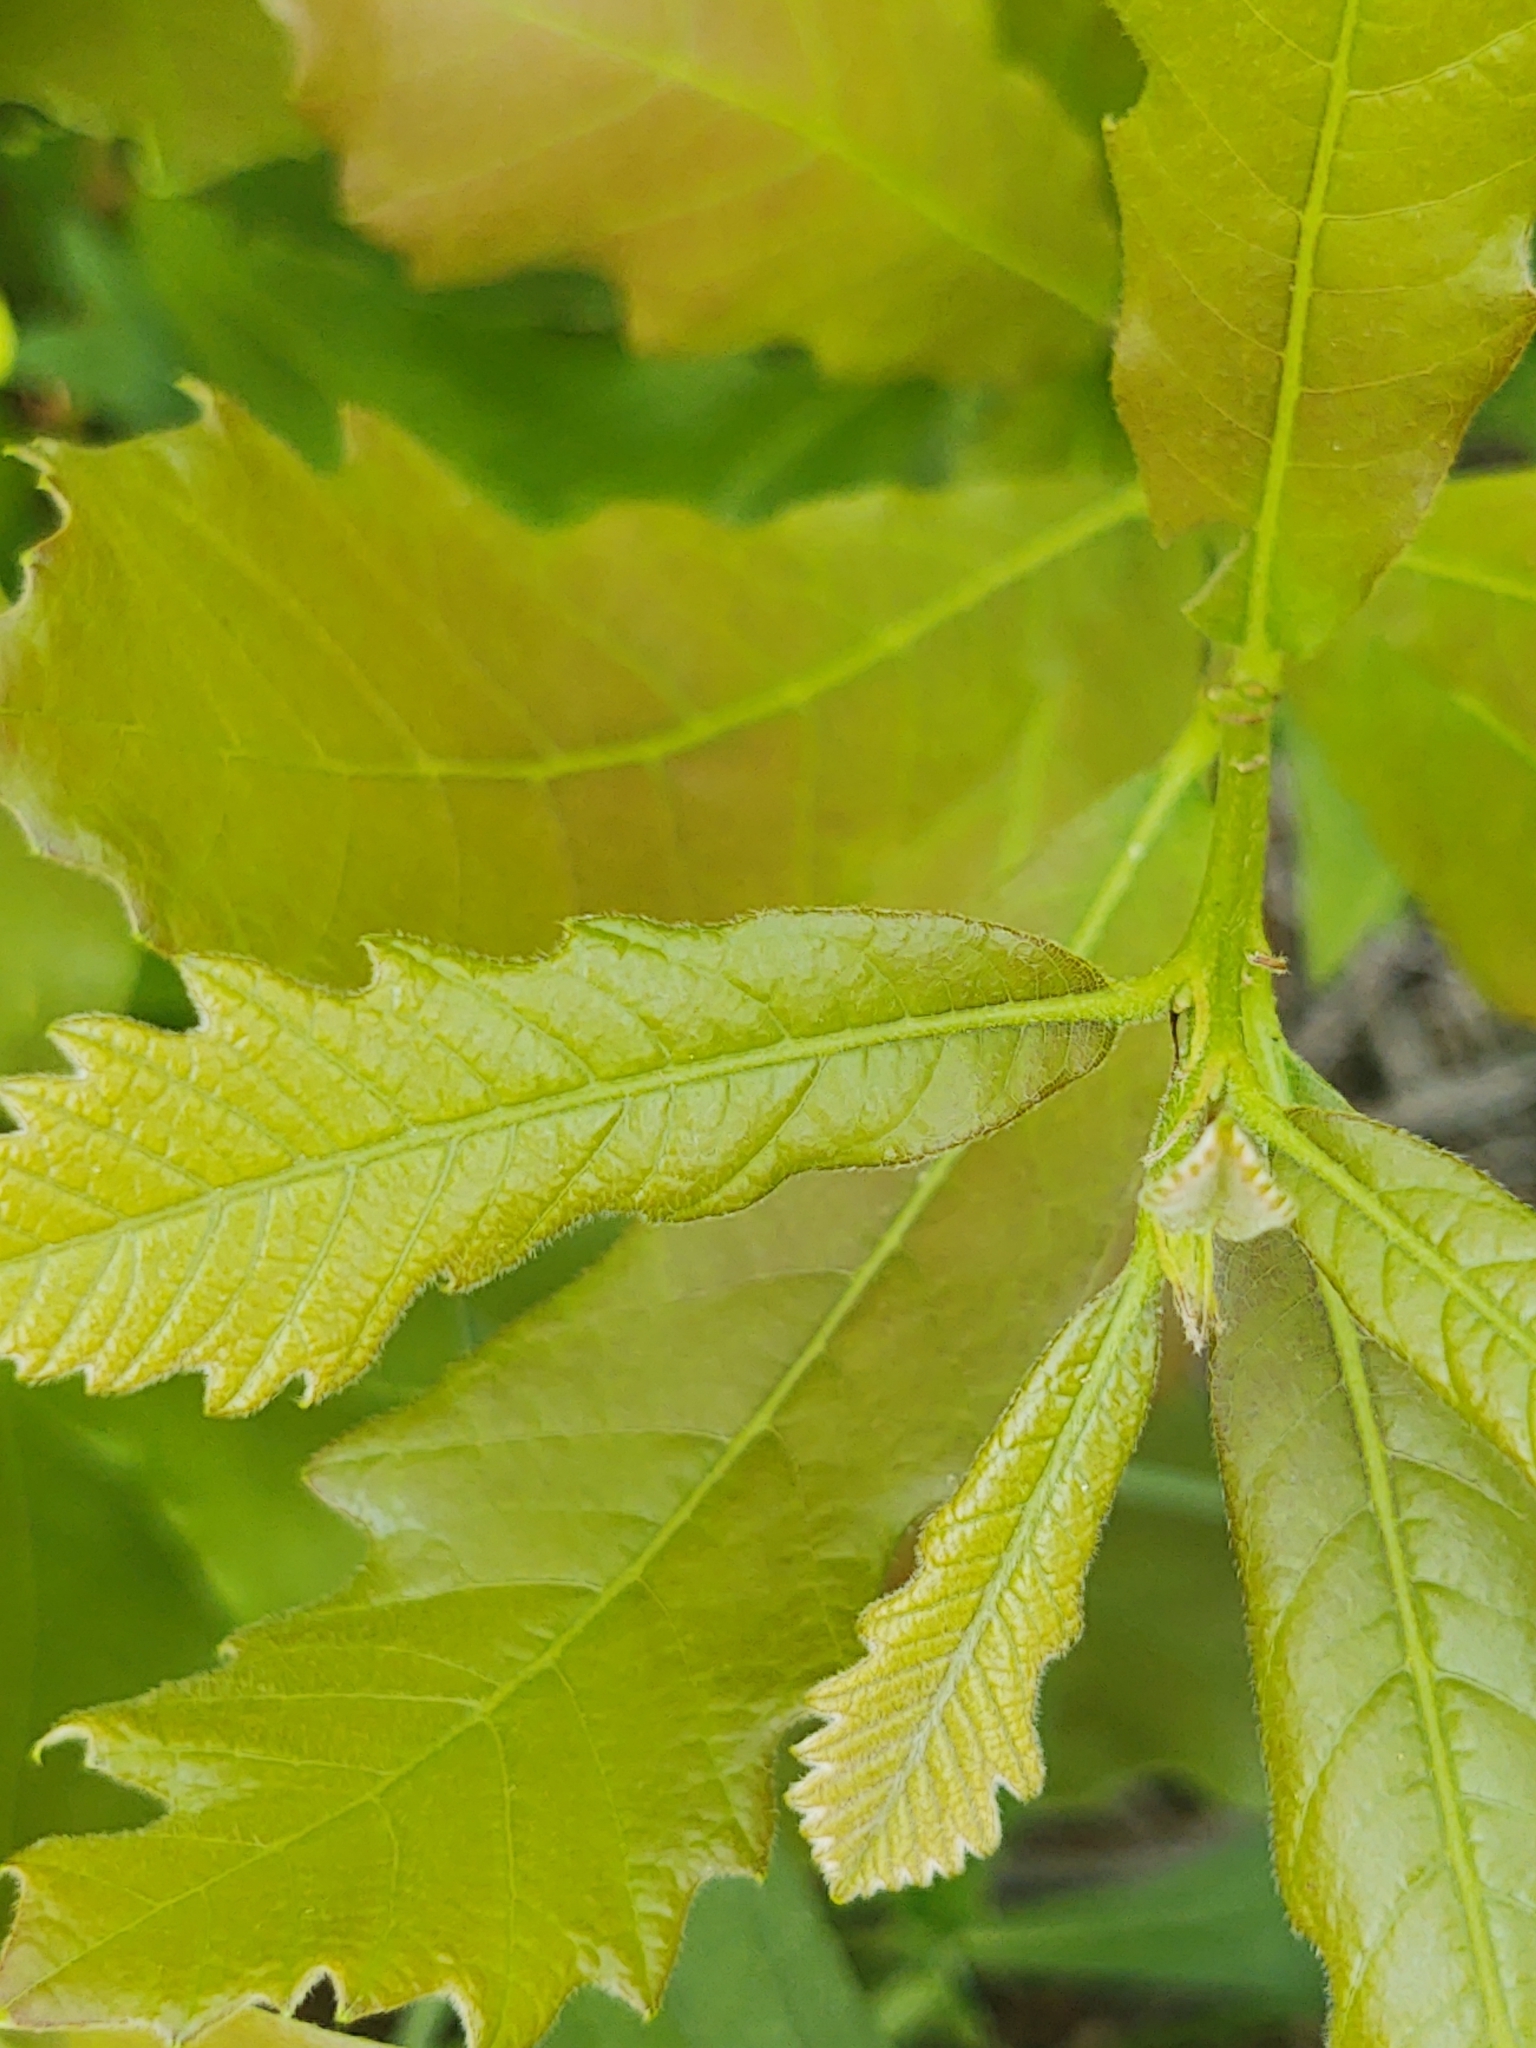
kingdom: Plantae
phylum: Tracheophyta
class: Magnoliopsida
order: Fagales
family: Fagaceae
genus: Quercus
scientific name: Quercus bicolor
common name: Swamp white oak
